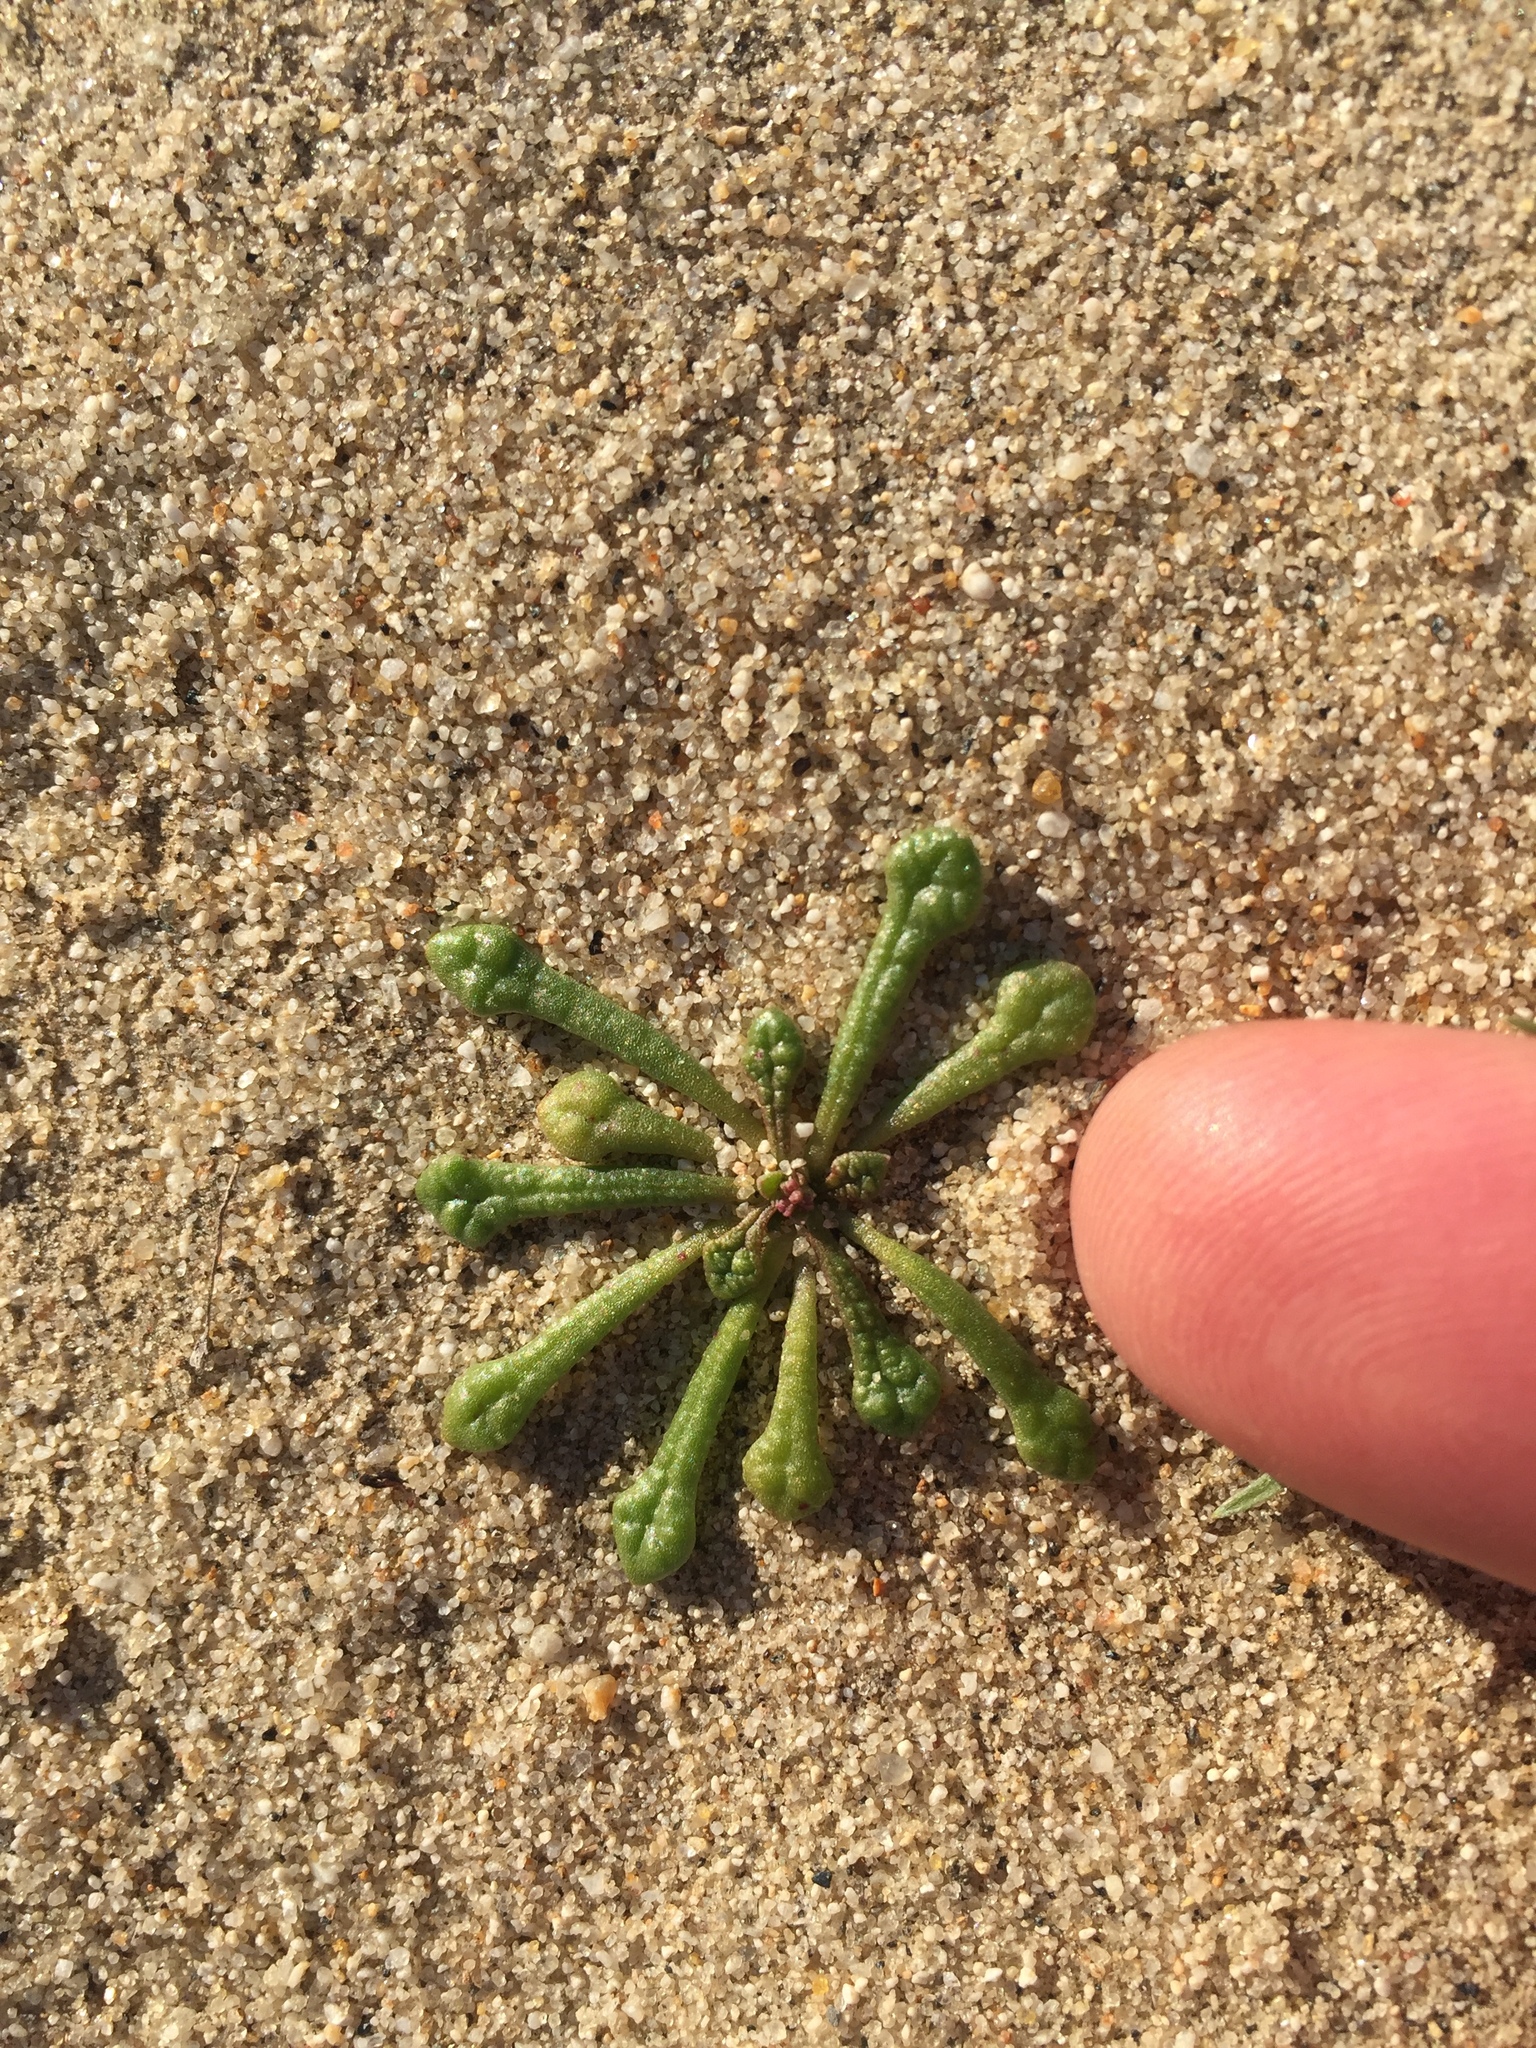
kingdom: Plantae
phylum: Tracheophyta
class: Magnoliopsida
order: Caryophyllales
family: Montiaceae
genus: Calyptridium
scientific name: Calyptridium monandrum
